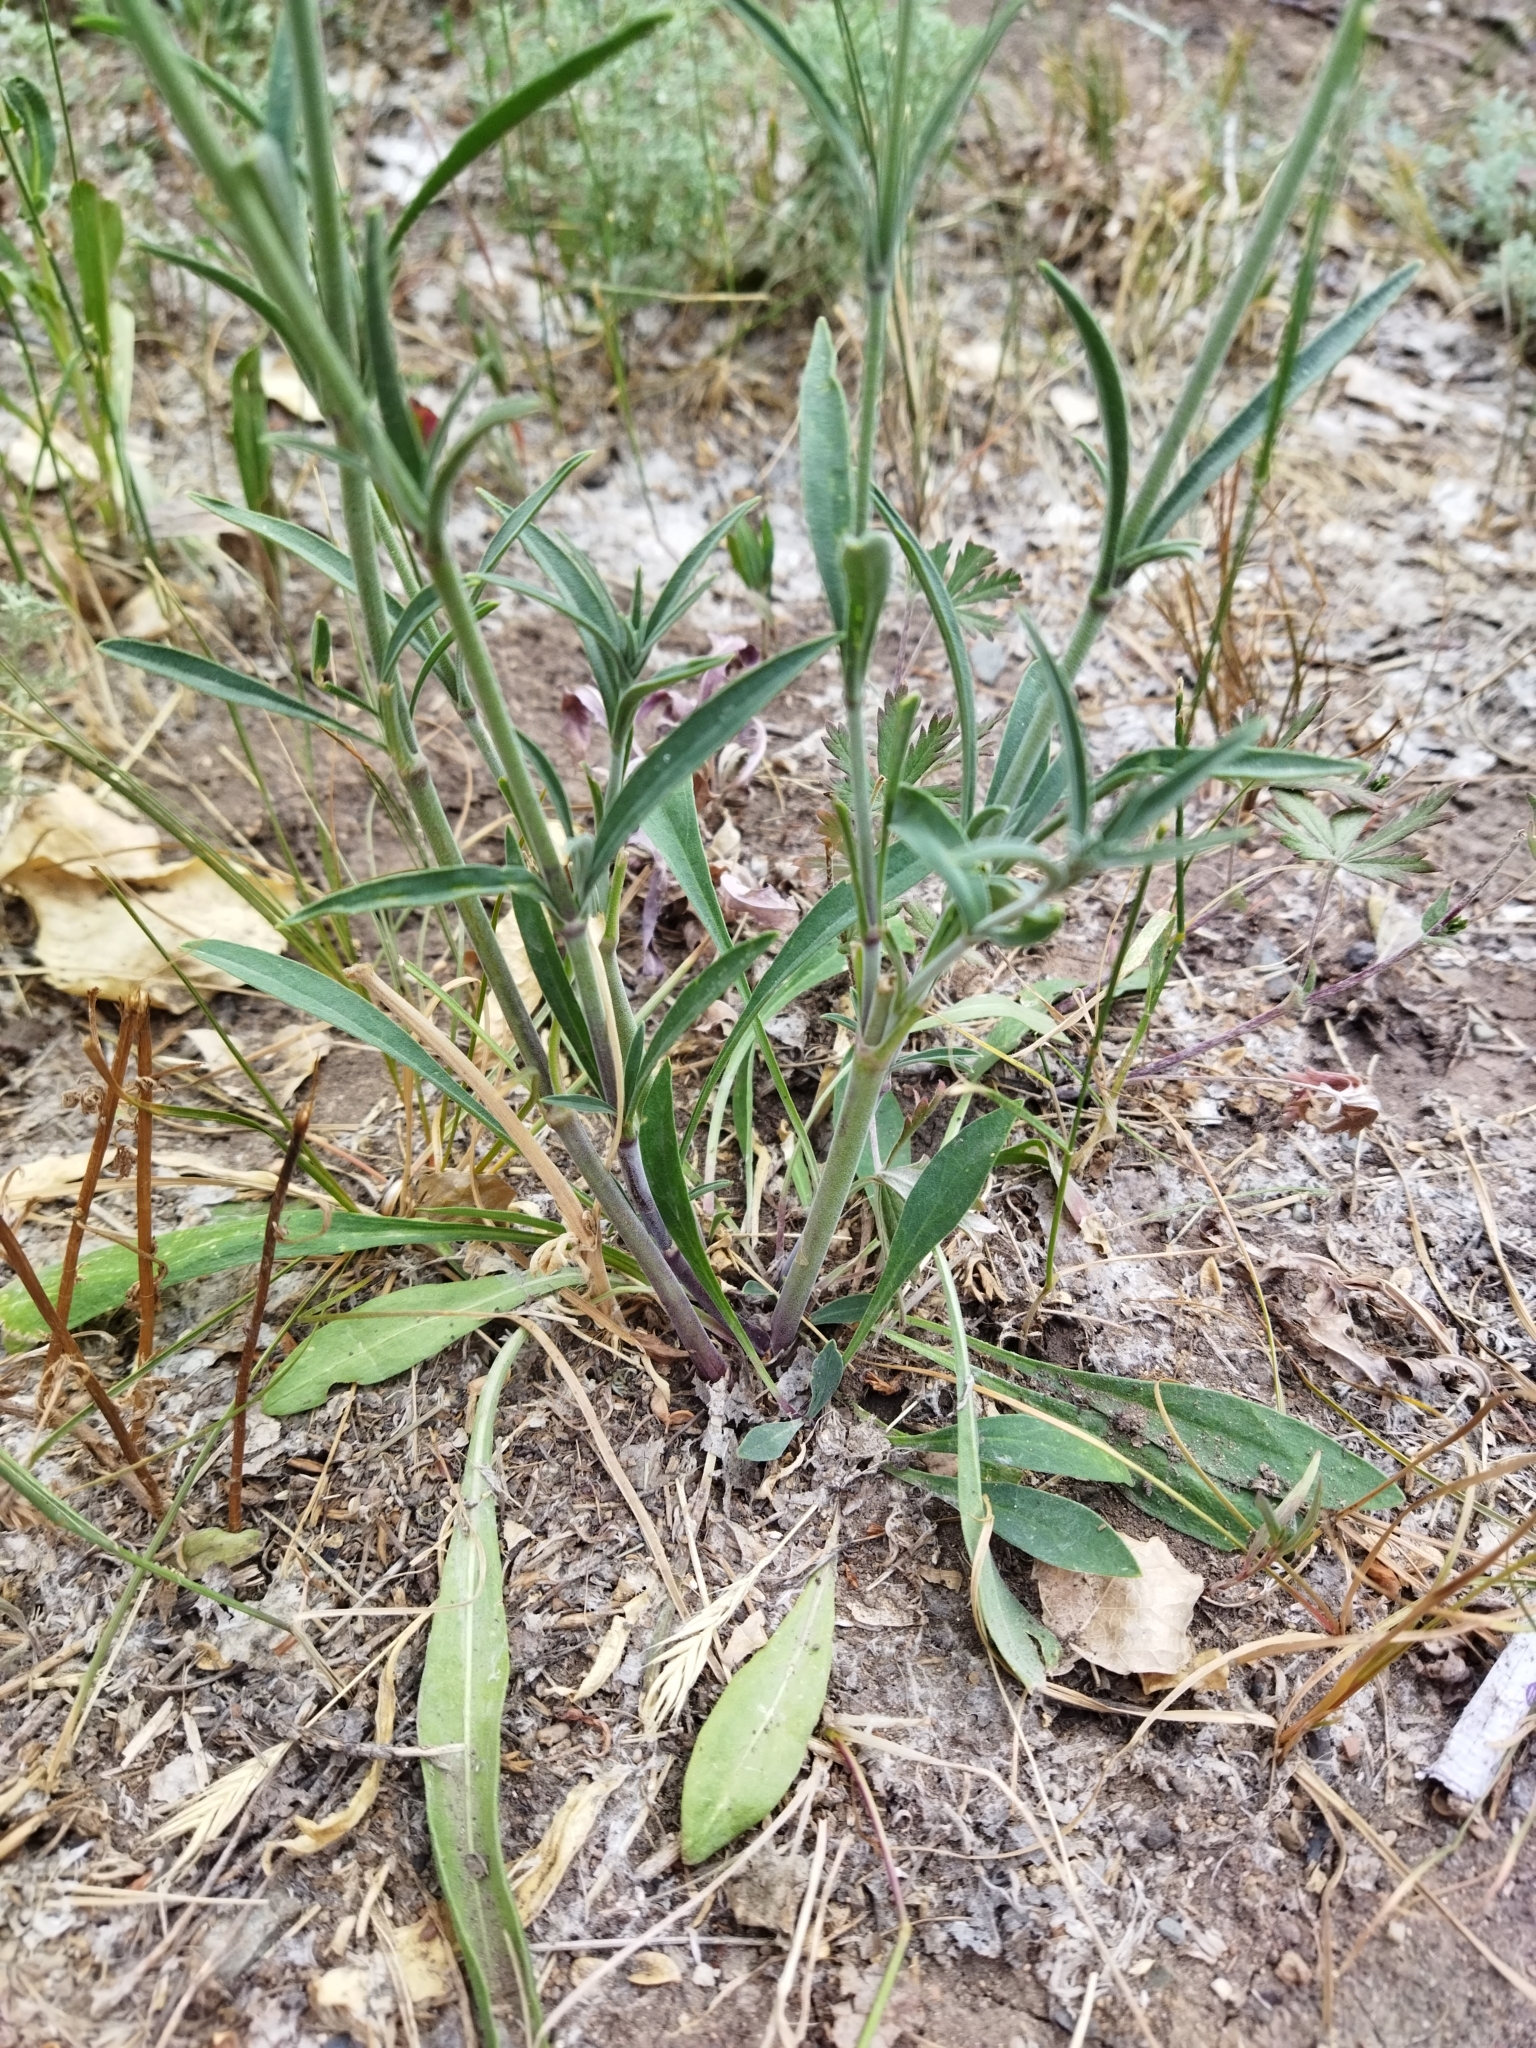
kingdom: Plantae
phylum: Tracheophyta
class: Magnoliopsida
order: Caryophyllales
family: Caryophyllaceae
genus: Silene
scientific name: Silene chlorantha
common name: Yellowgreen catchfly
